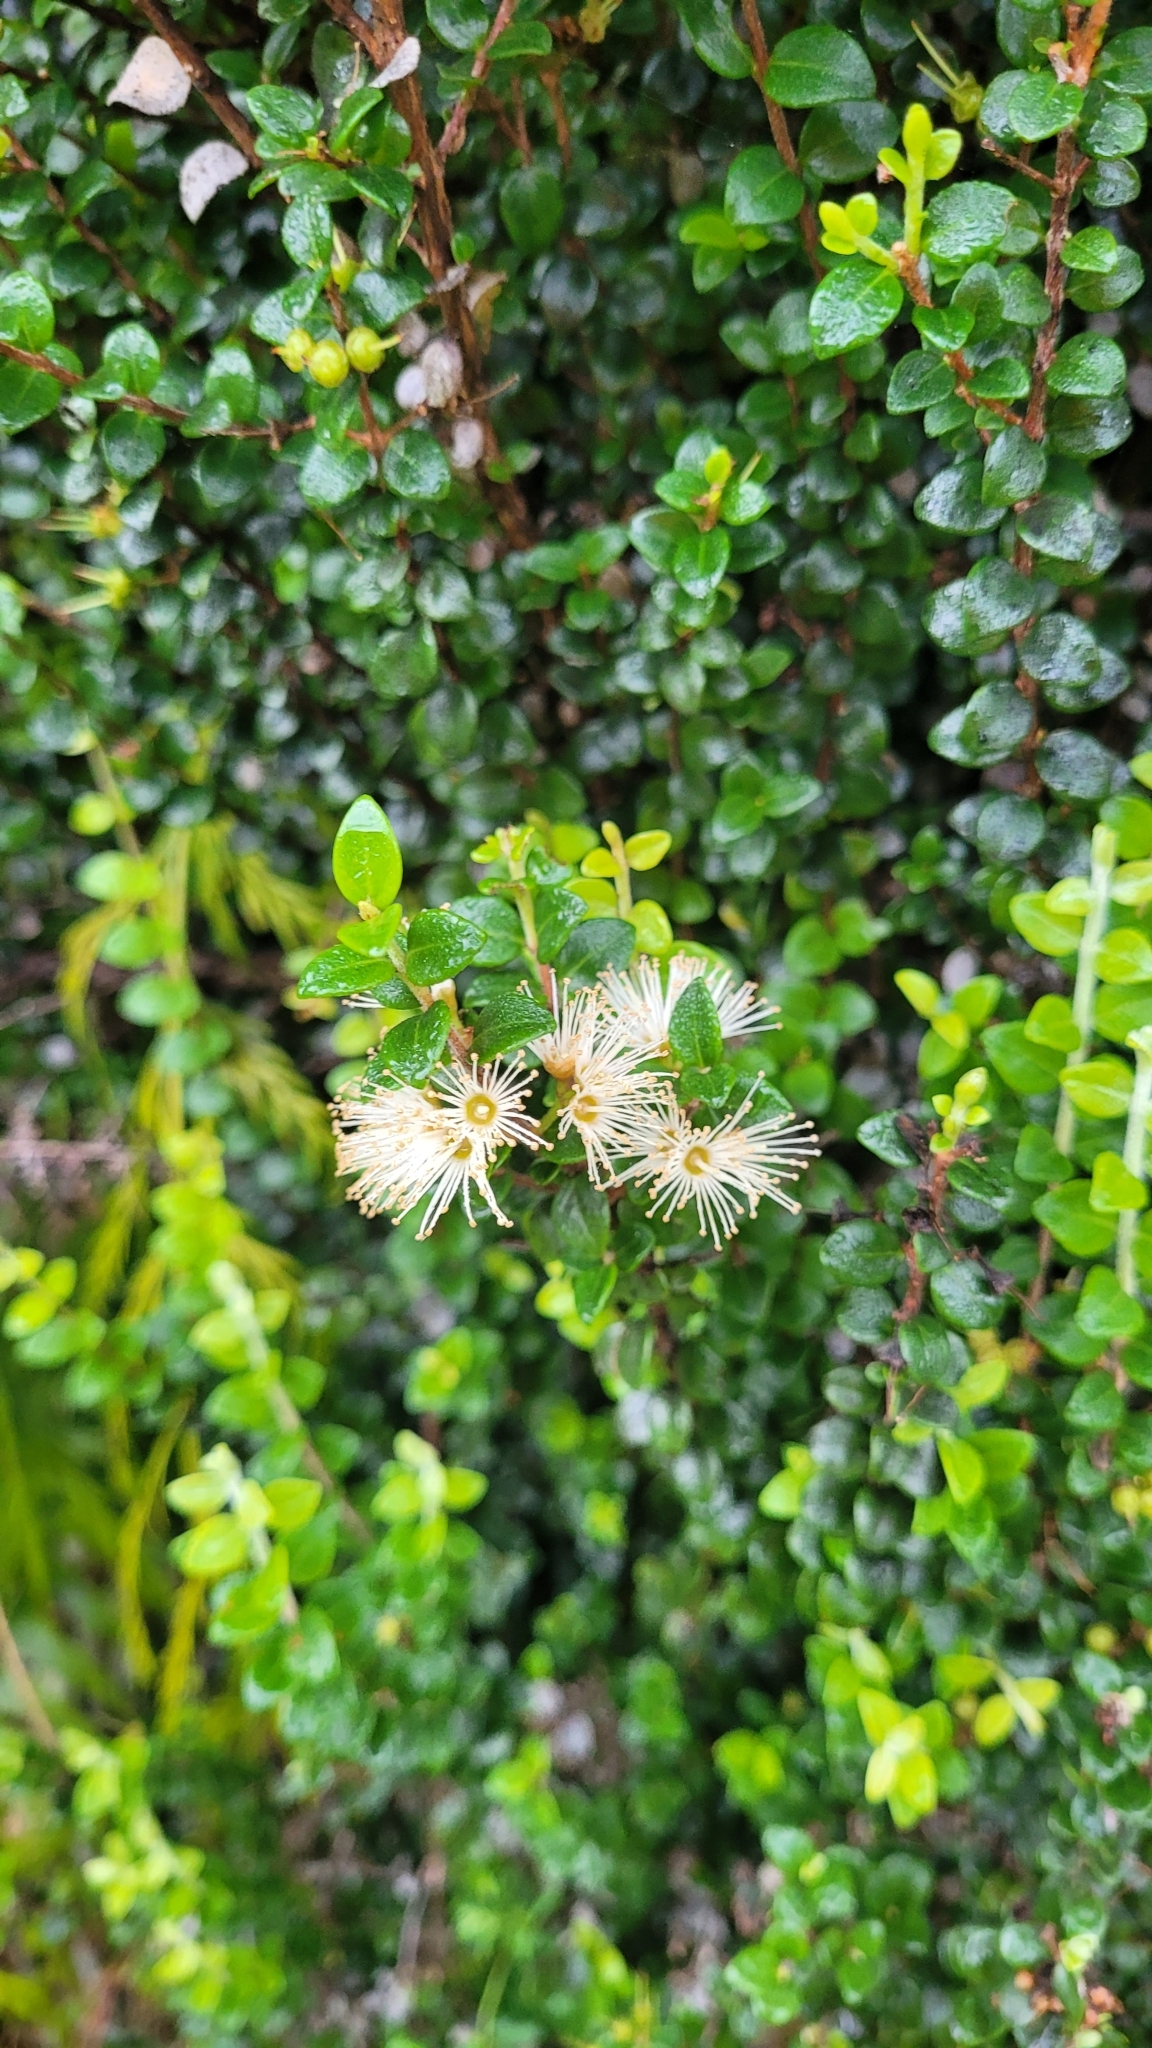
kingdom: Plantae
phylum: Tracheophyta
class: Magnoliopsida
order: Myrtales
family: Myrtaceae
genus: Metrosideros
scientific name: Metrosideros perforata
